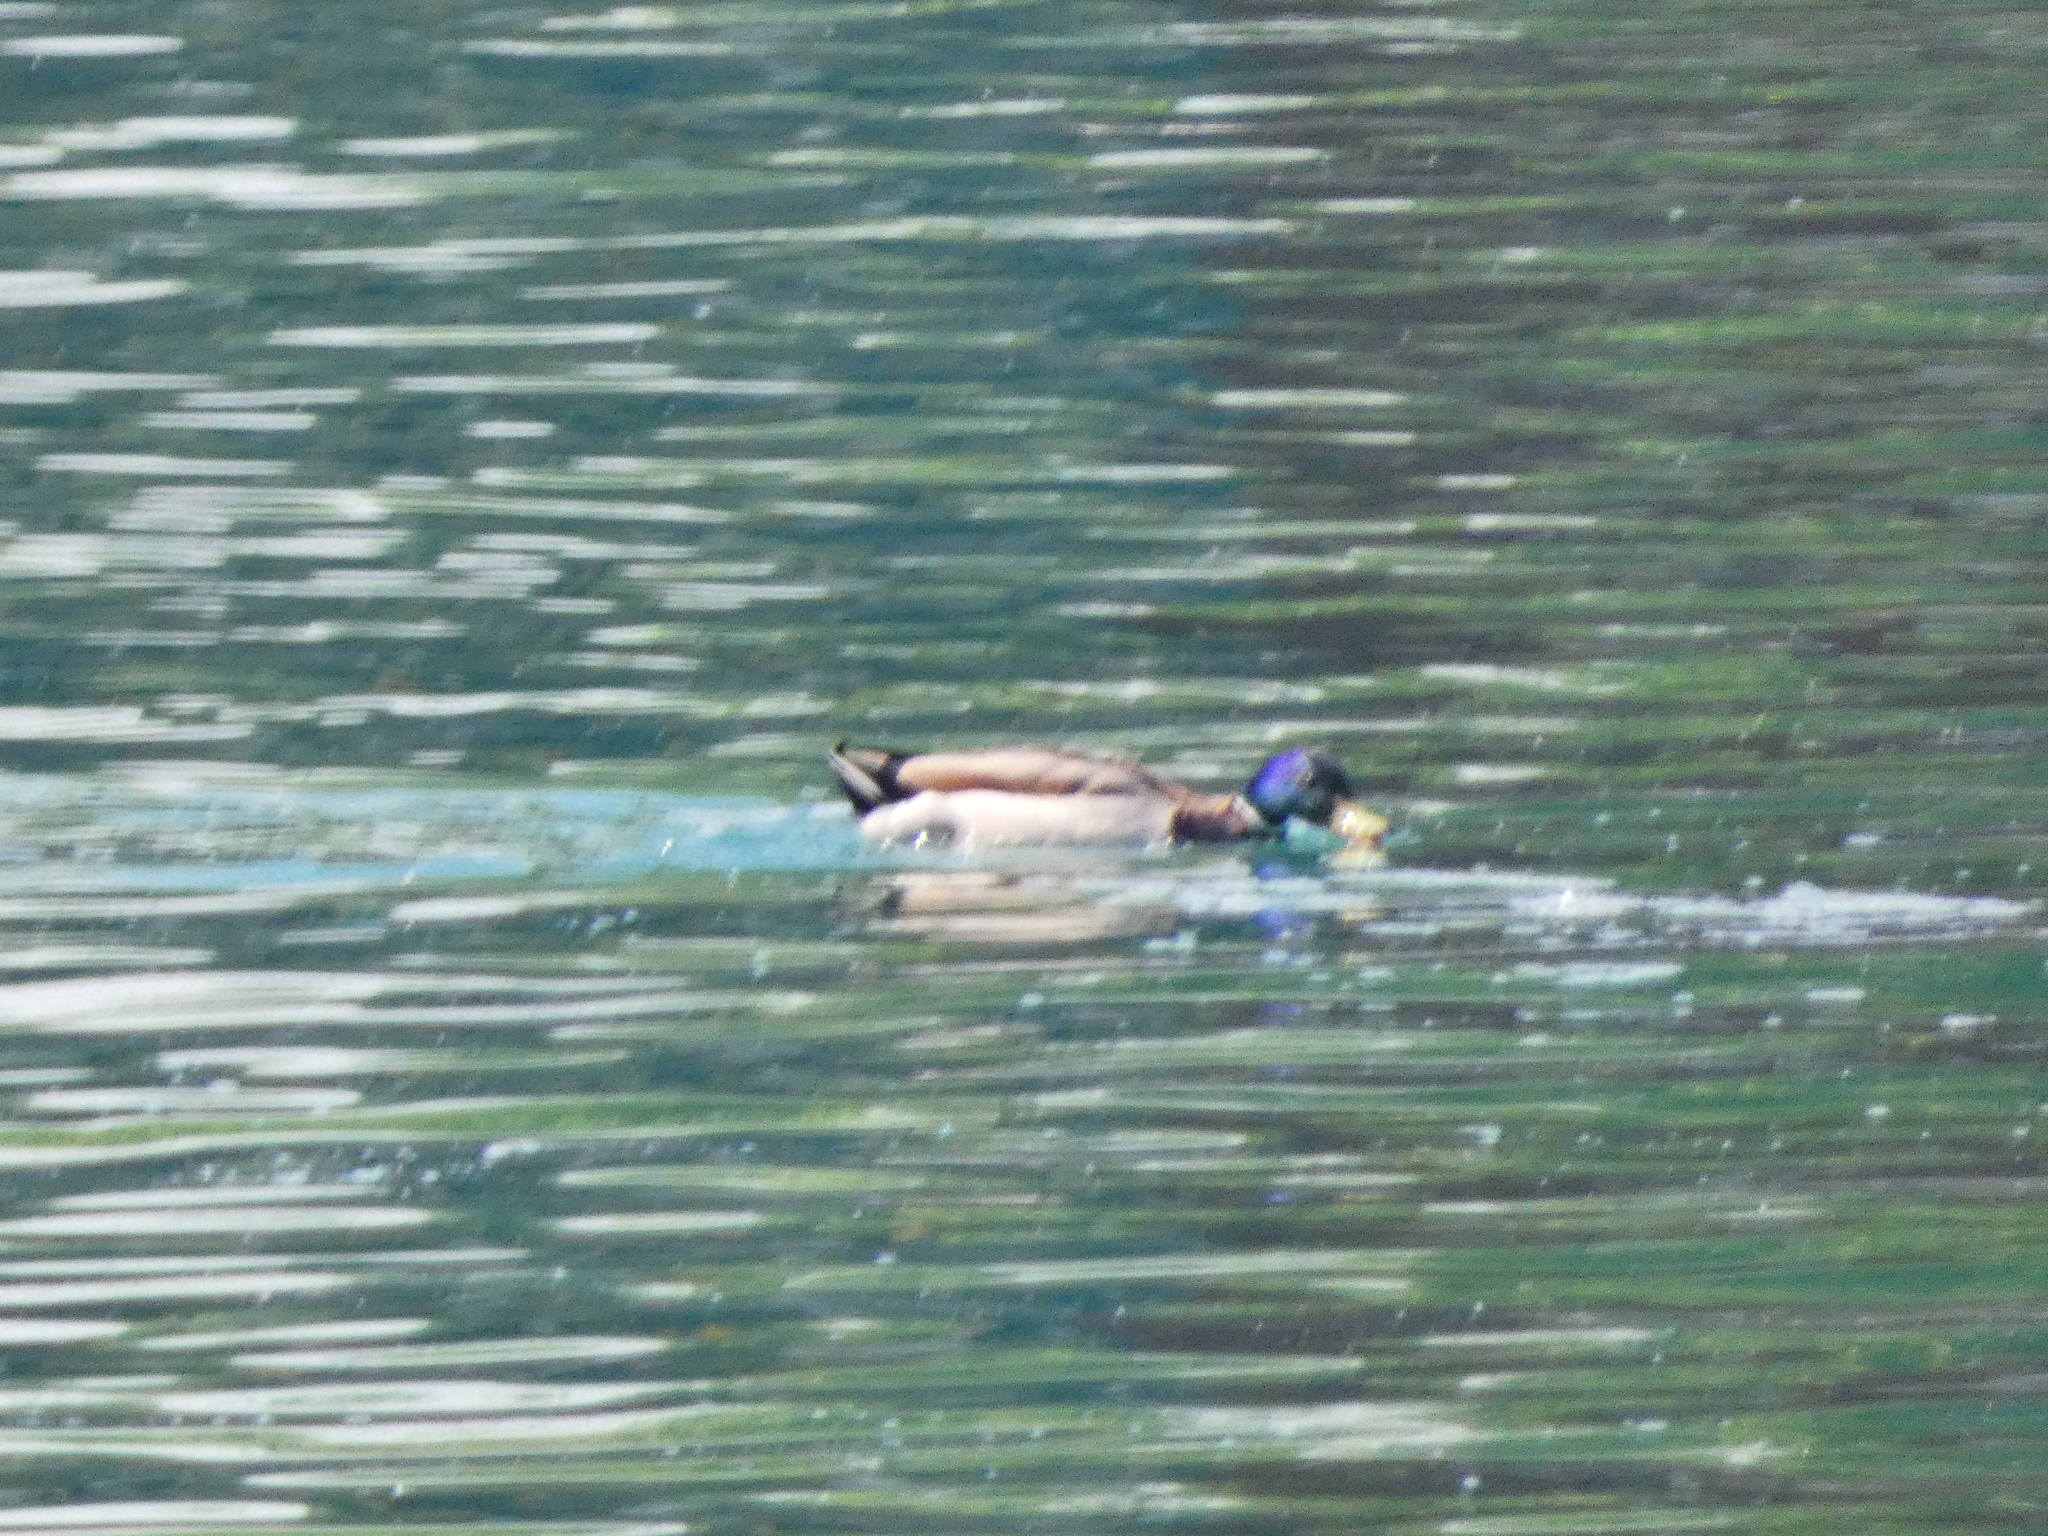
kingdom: Animalia
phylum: Chordata
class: Aves
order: Anseriformes
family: Anatidae
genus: Anas
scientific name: Anas platyrhynchos
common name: Mallard
